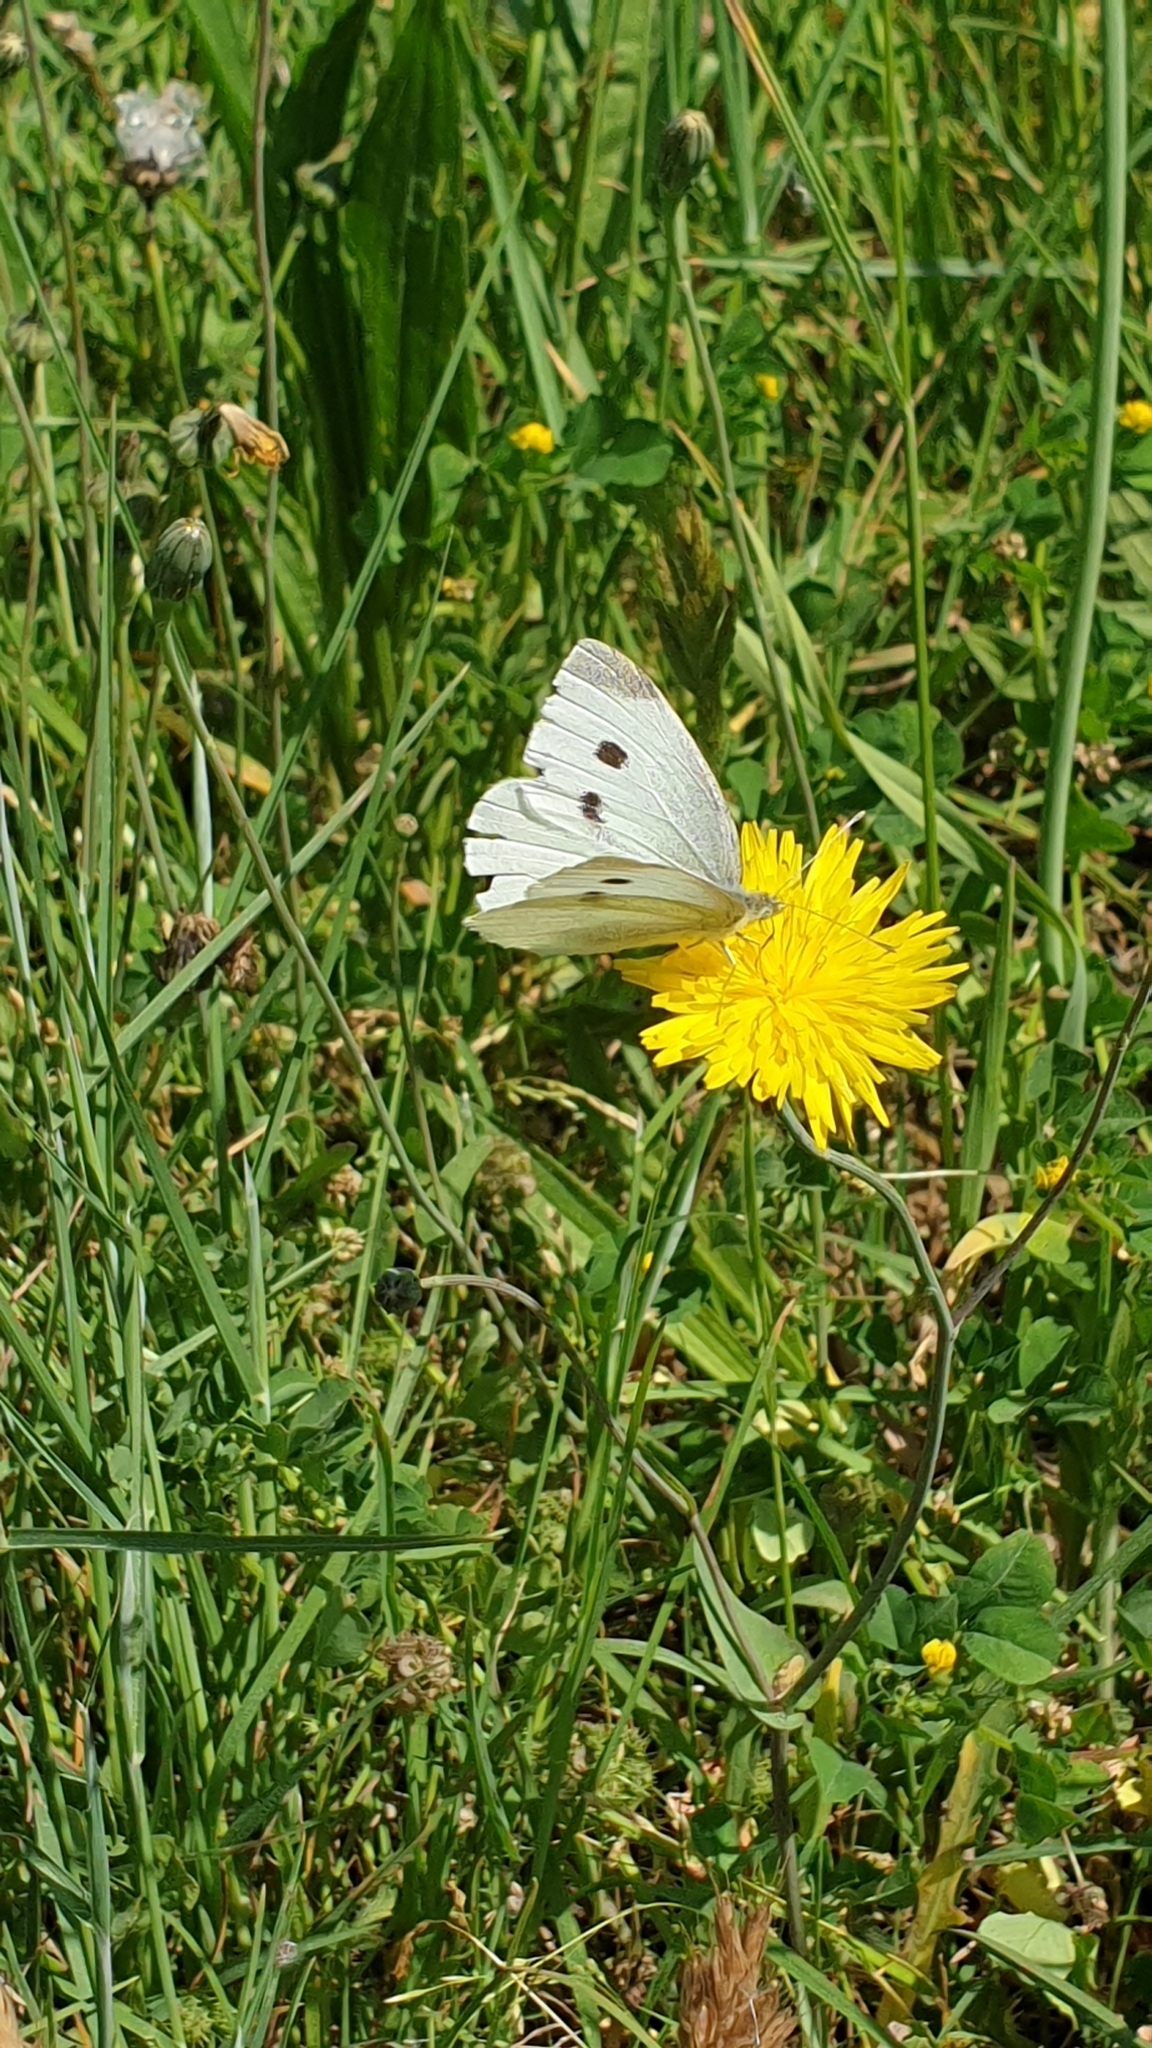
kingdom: Animalia
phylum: Arthropoda
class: Insecta
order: Lepidoptera
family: Pieridae
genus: Pieris
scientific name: Pieris rapae
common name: Small white
